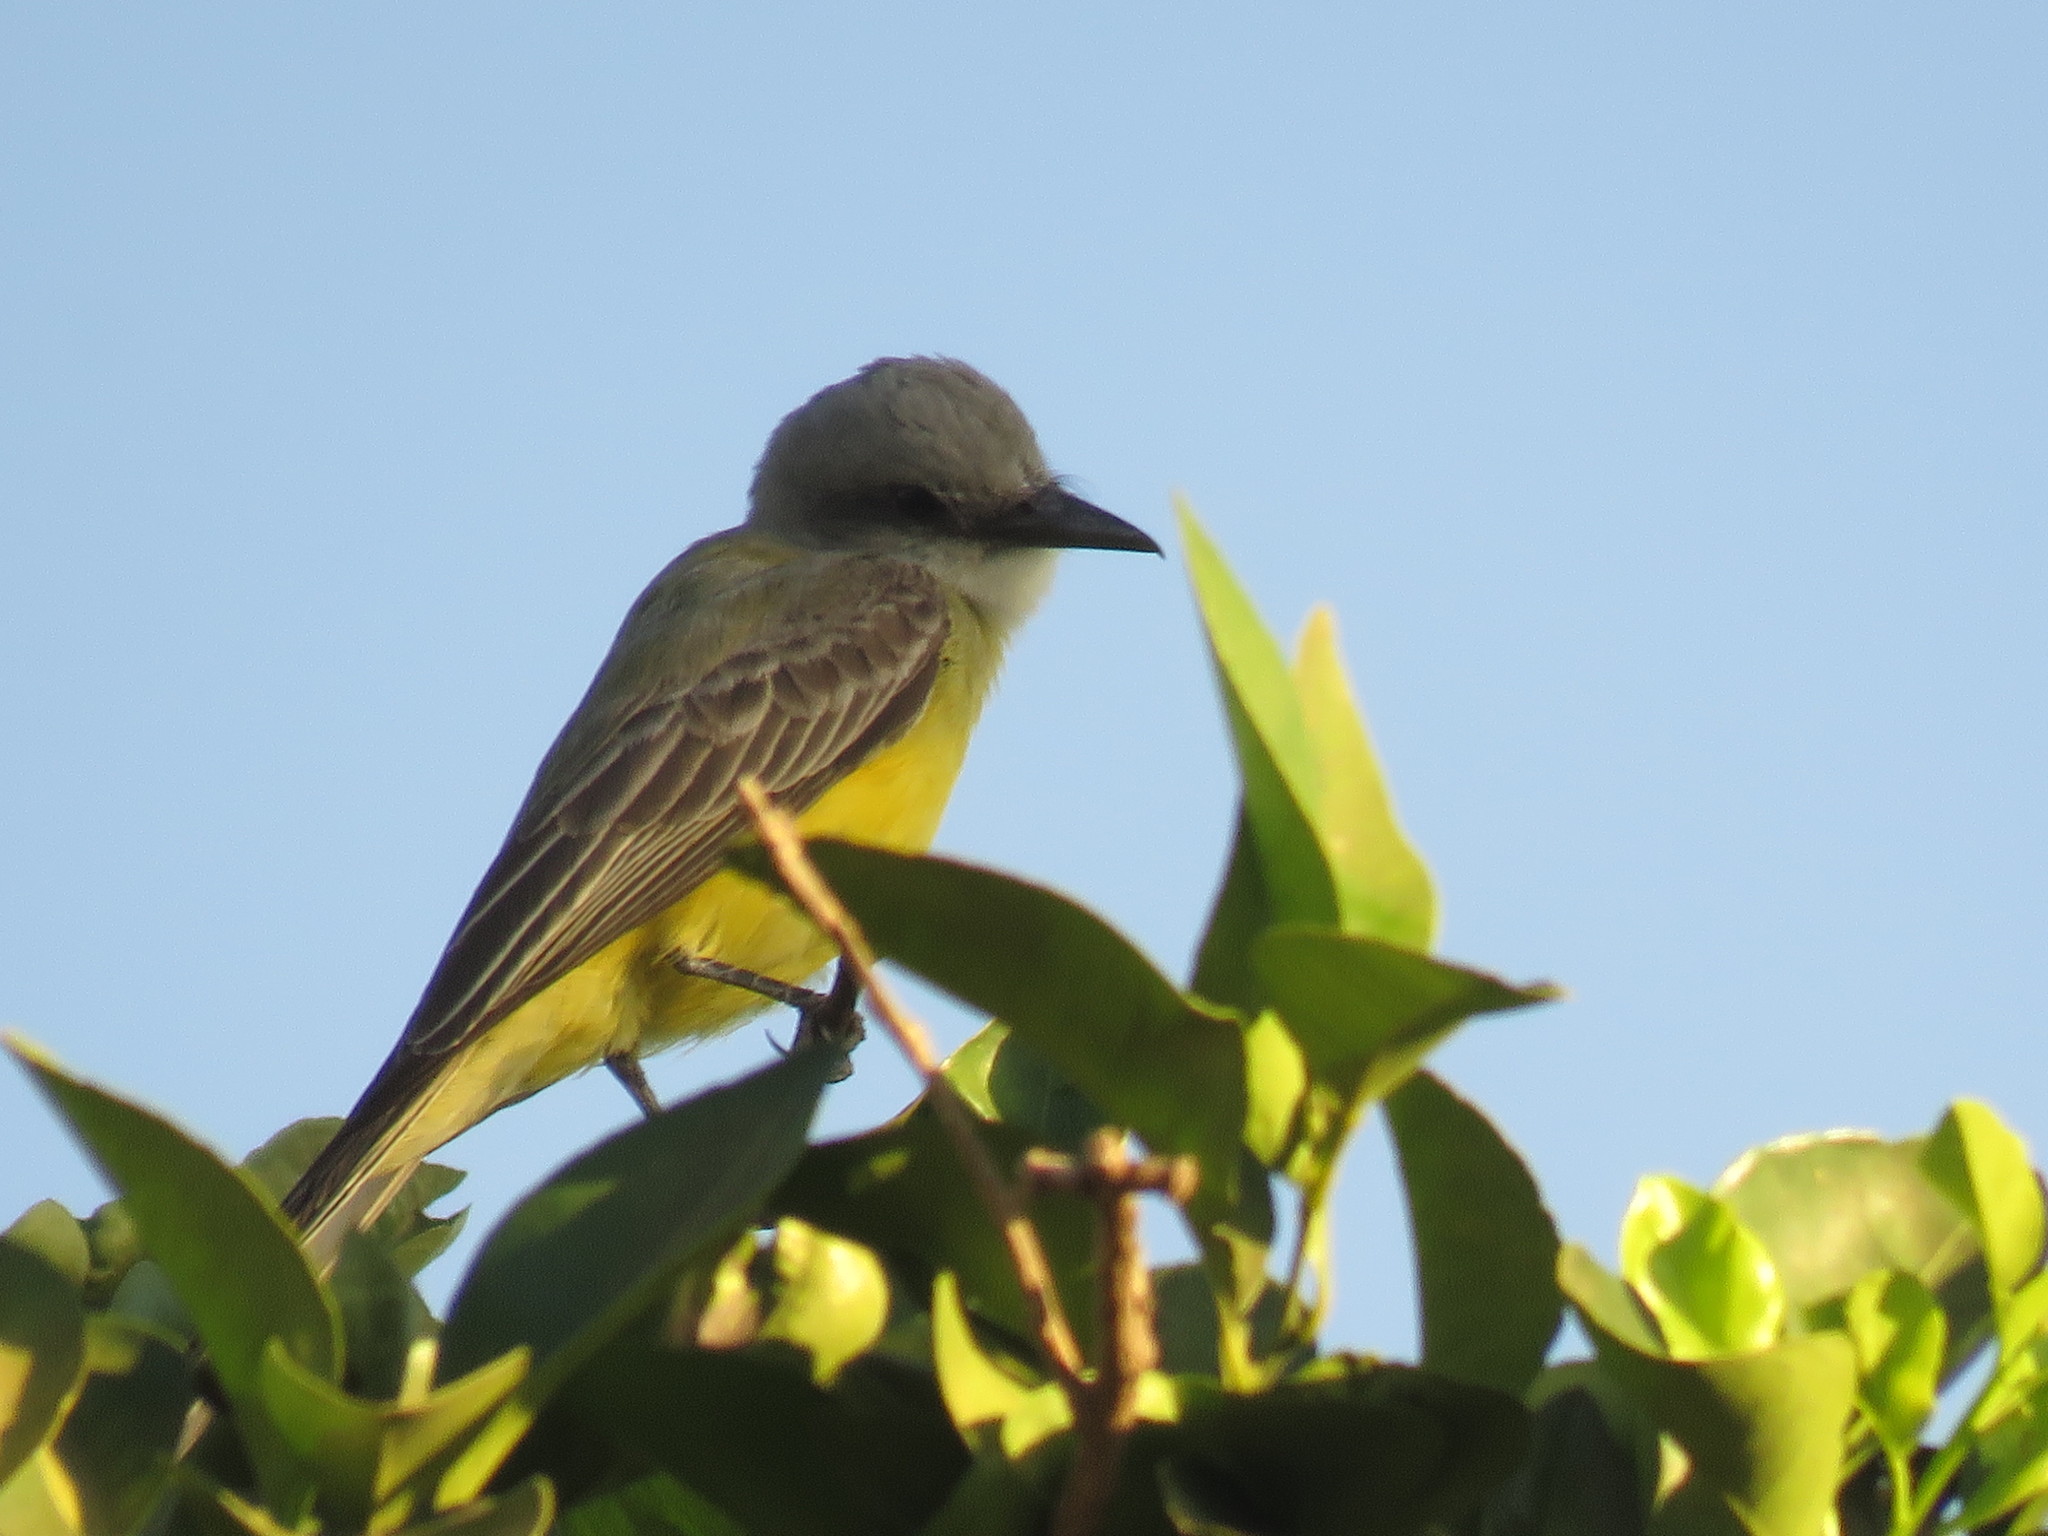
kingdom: Animalia
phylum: Chordata
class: Aves
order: Passeriformes
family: Tyrannidae
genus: Tyrannus
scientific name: Tyrannus melancholicus
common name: Tropical kingbird
